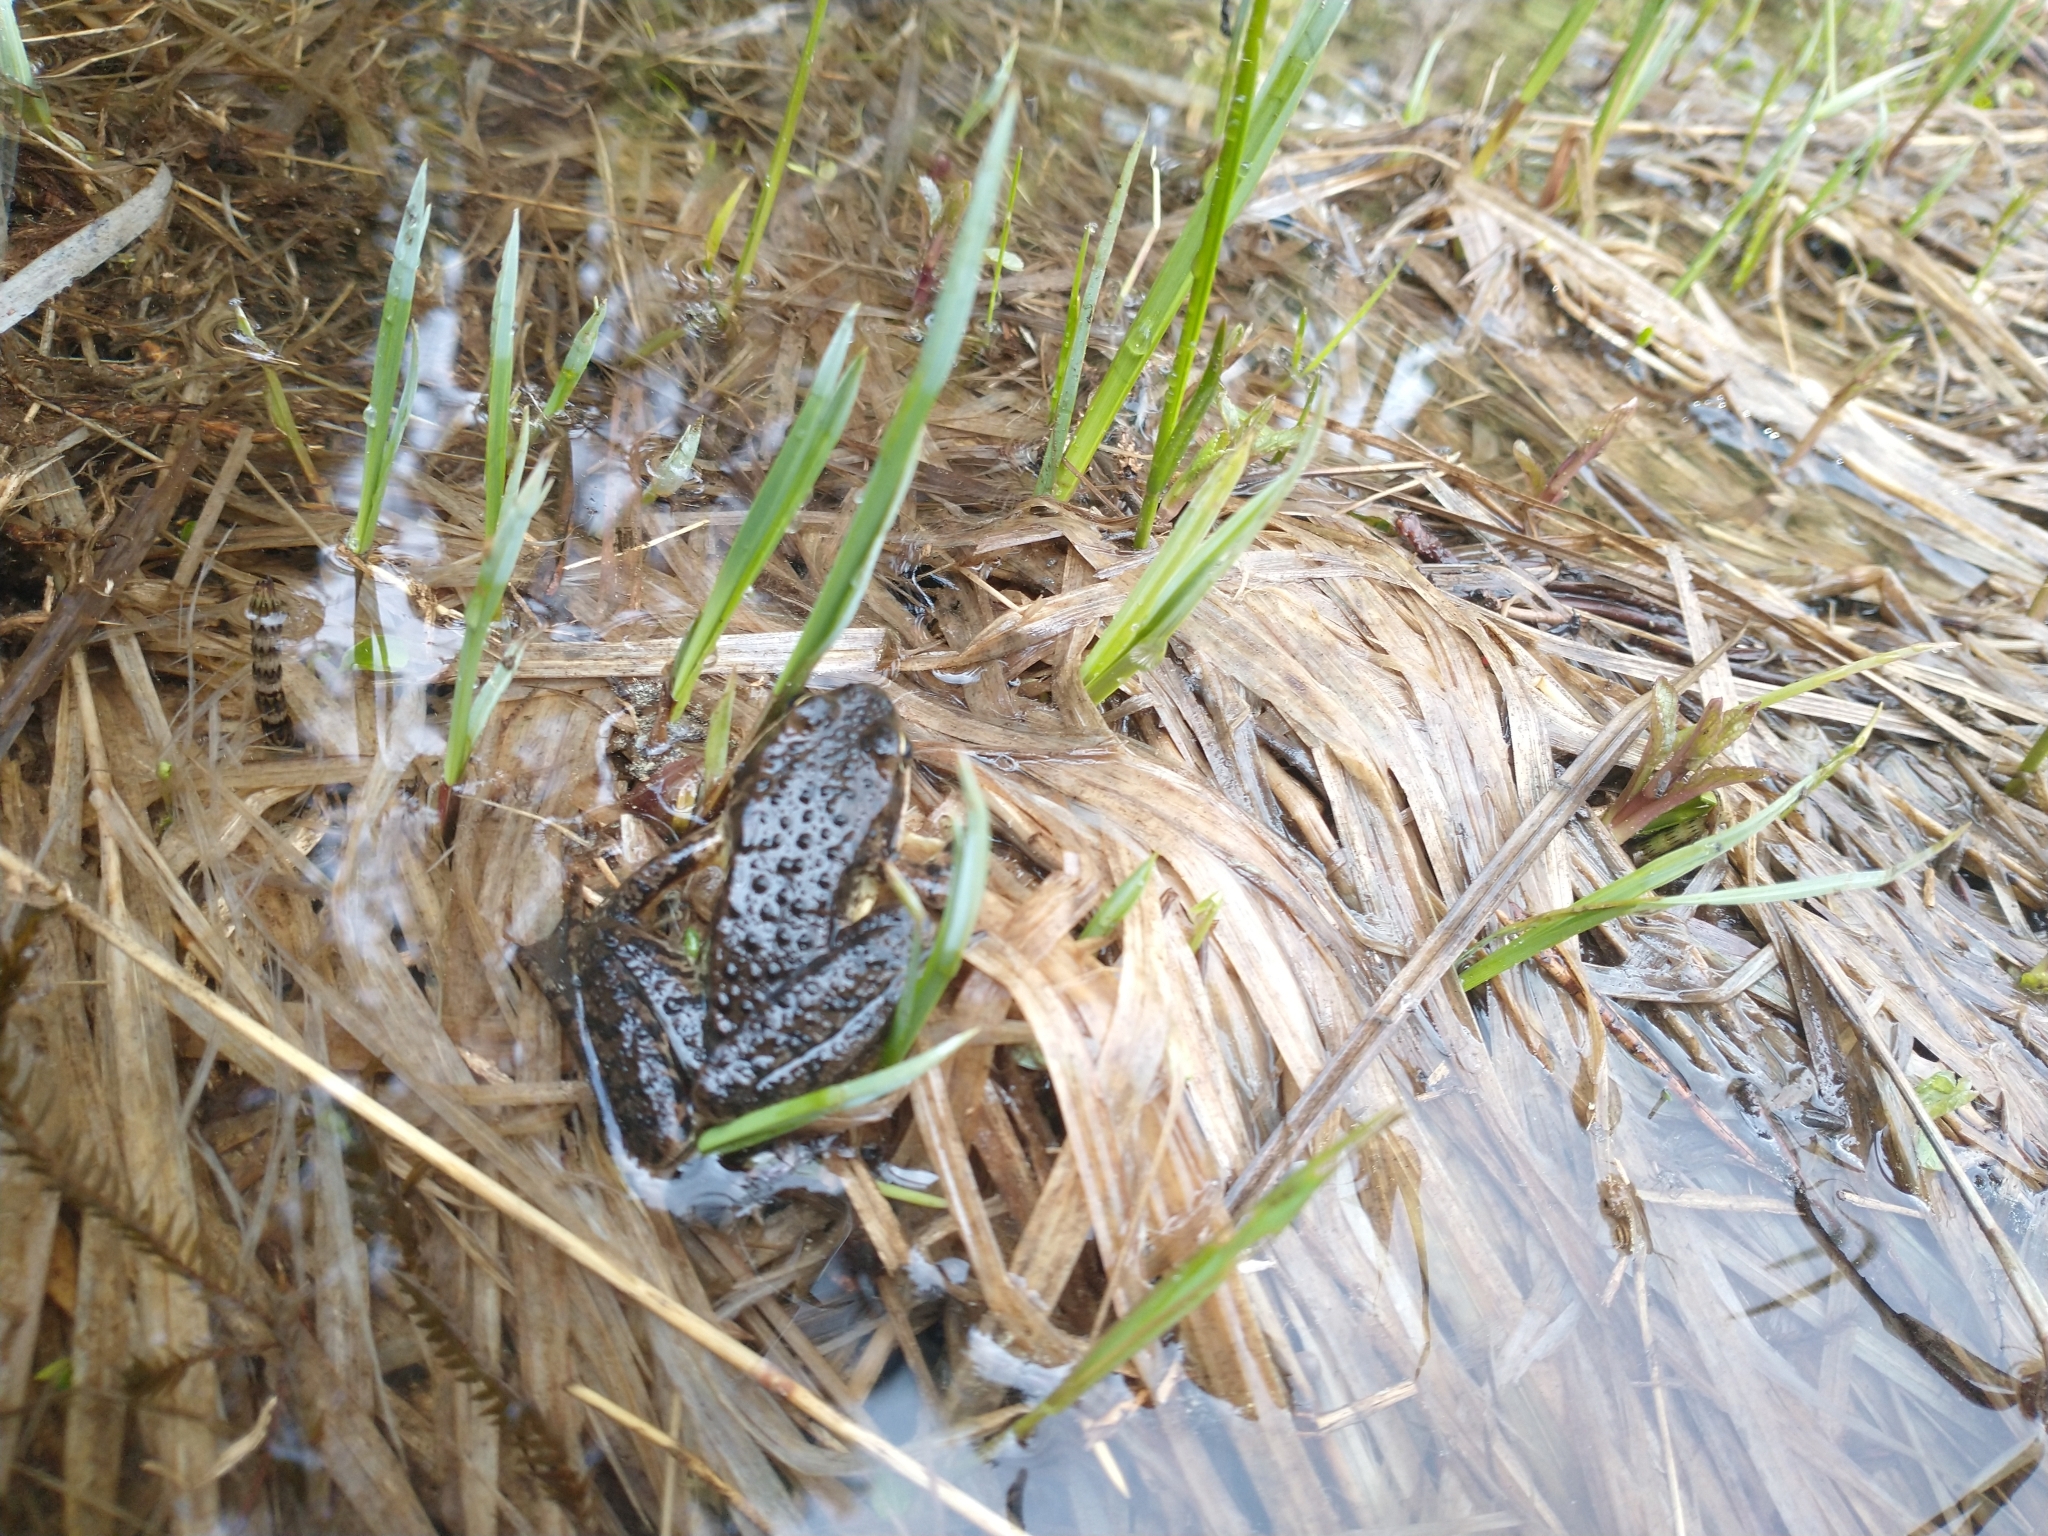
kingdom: Animalia
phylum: Chordata
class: Amphibia
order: Anura
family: Ranidae
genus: Rana
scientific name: Rana cascadae
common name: Cascades frog
